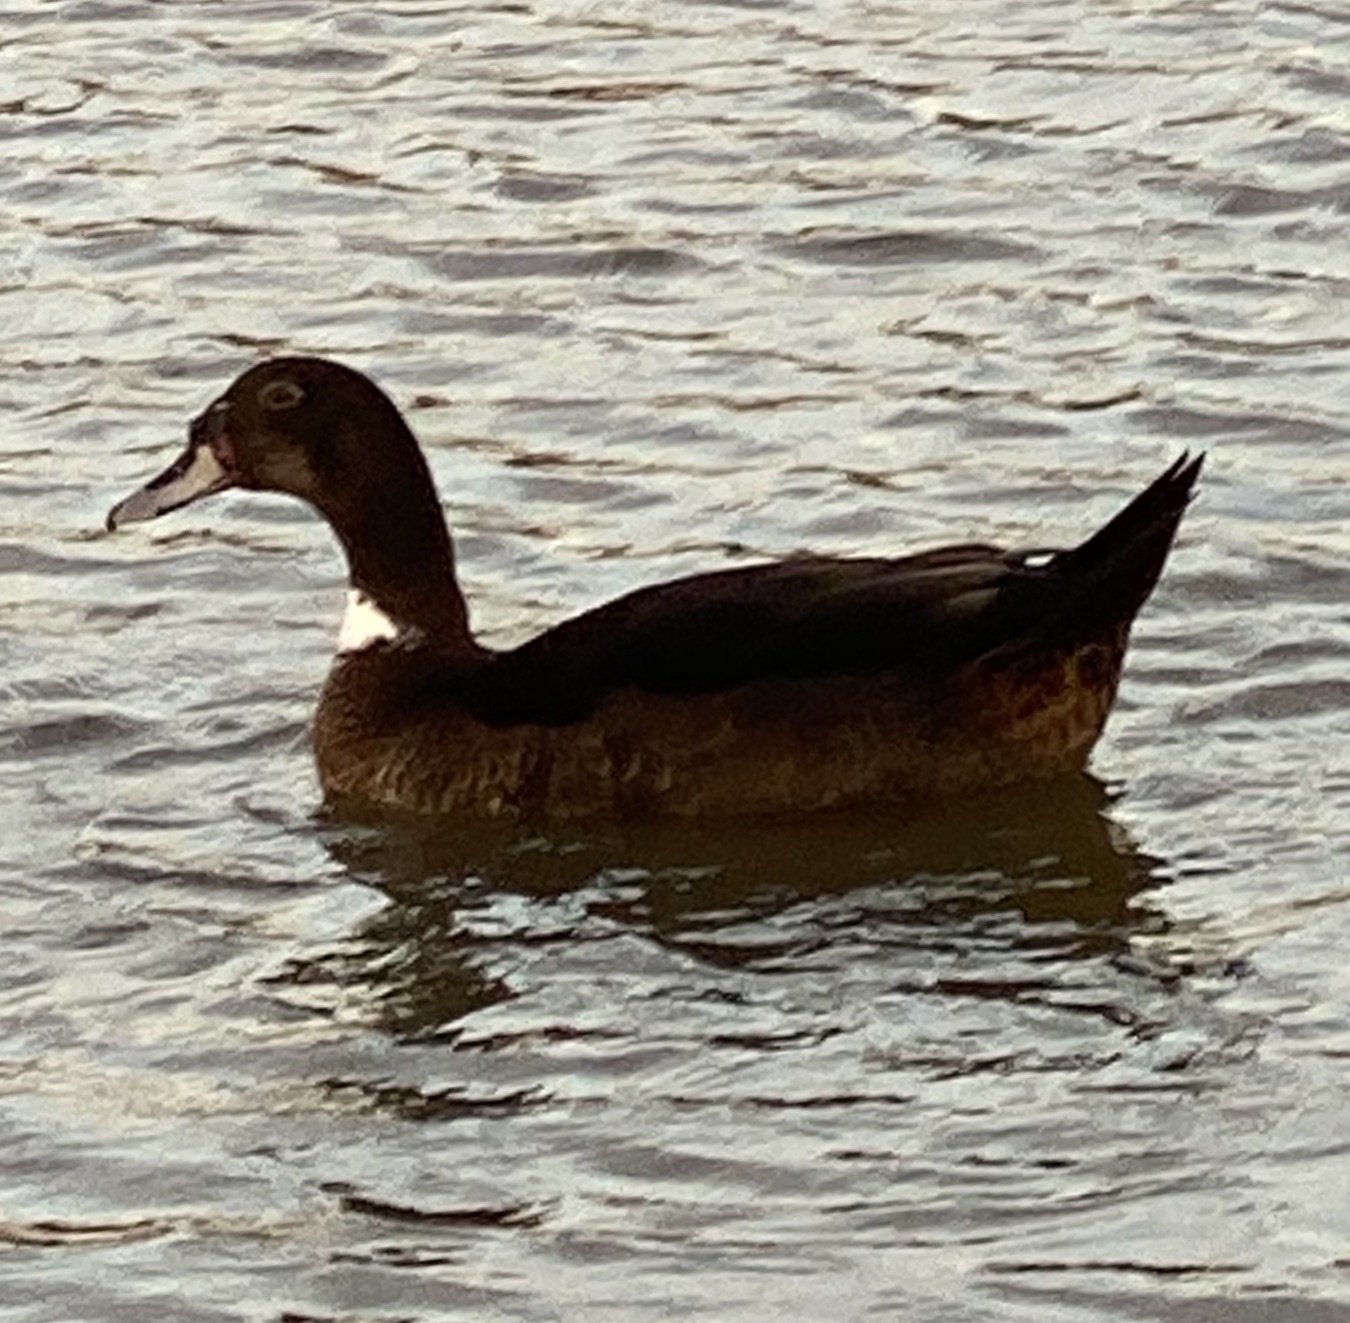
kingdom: Animalia
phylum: Chordata
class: Aves
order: Anseriformes
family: Anatidae
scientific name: Anatidae
